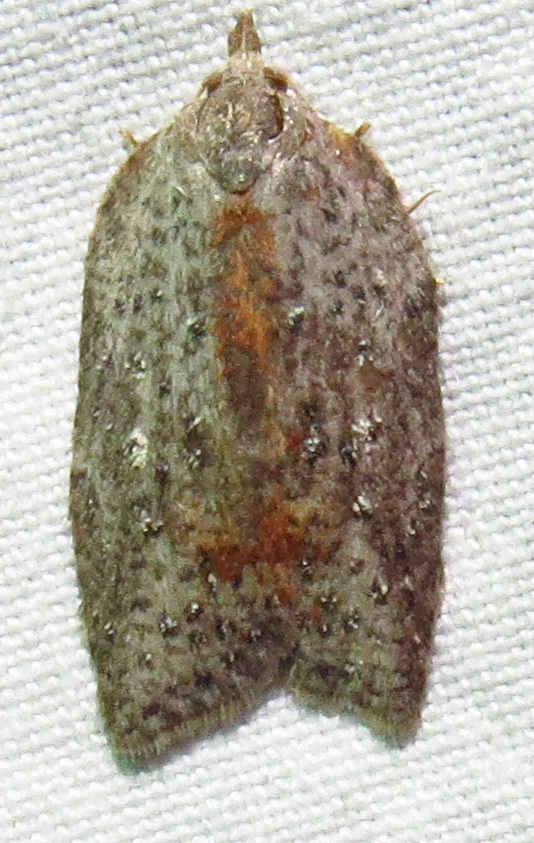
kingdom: Animalia
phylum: Arthropoda
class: Insecta
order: Lepidoptera
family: Tortricidae
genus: Amorbia
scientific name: Amorbia humerosana
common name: White-lined leafroller moth
